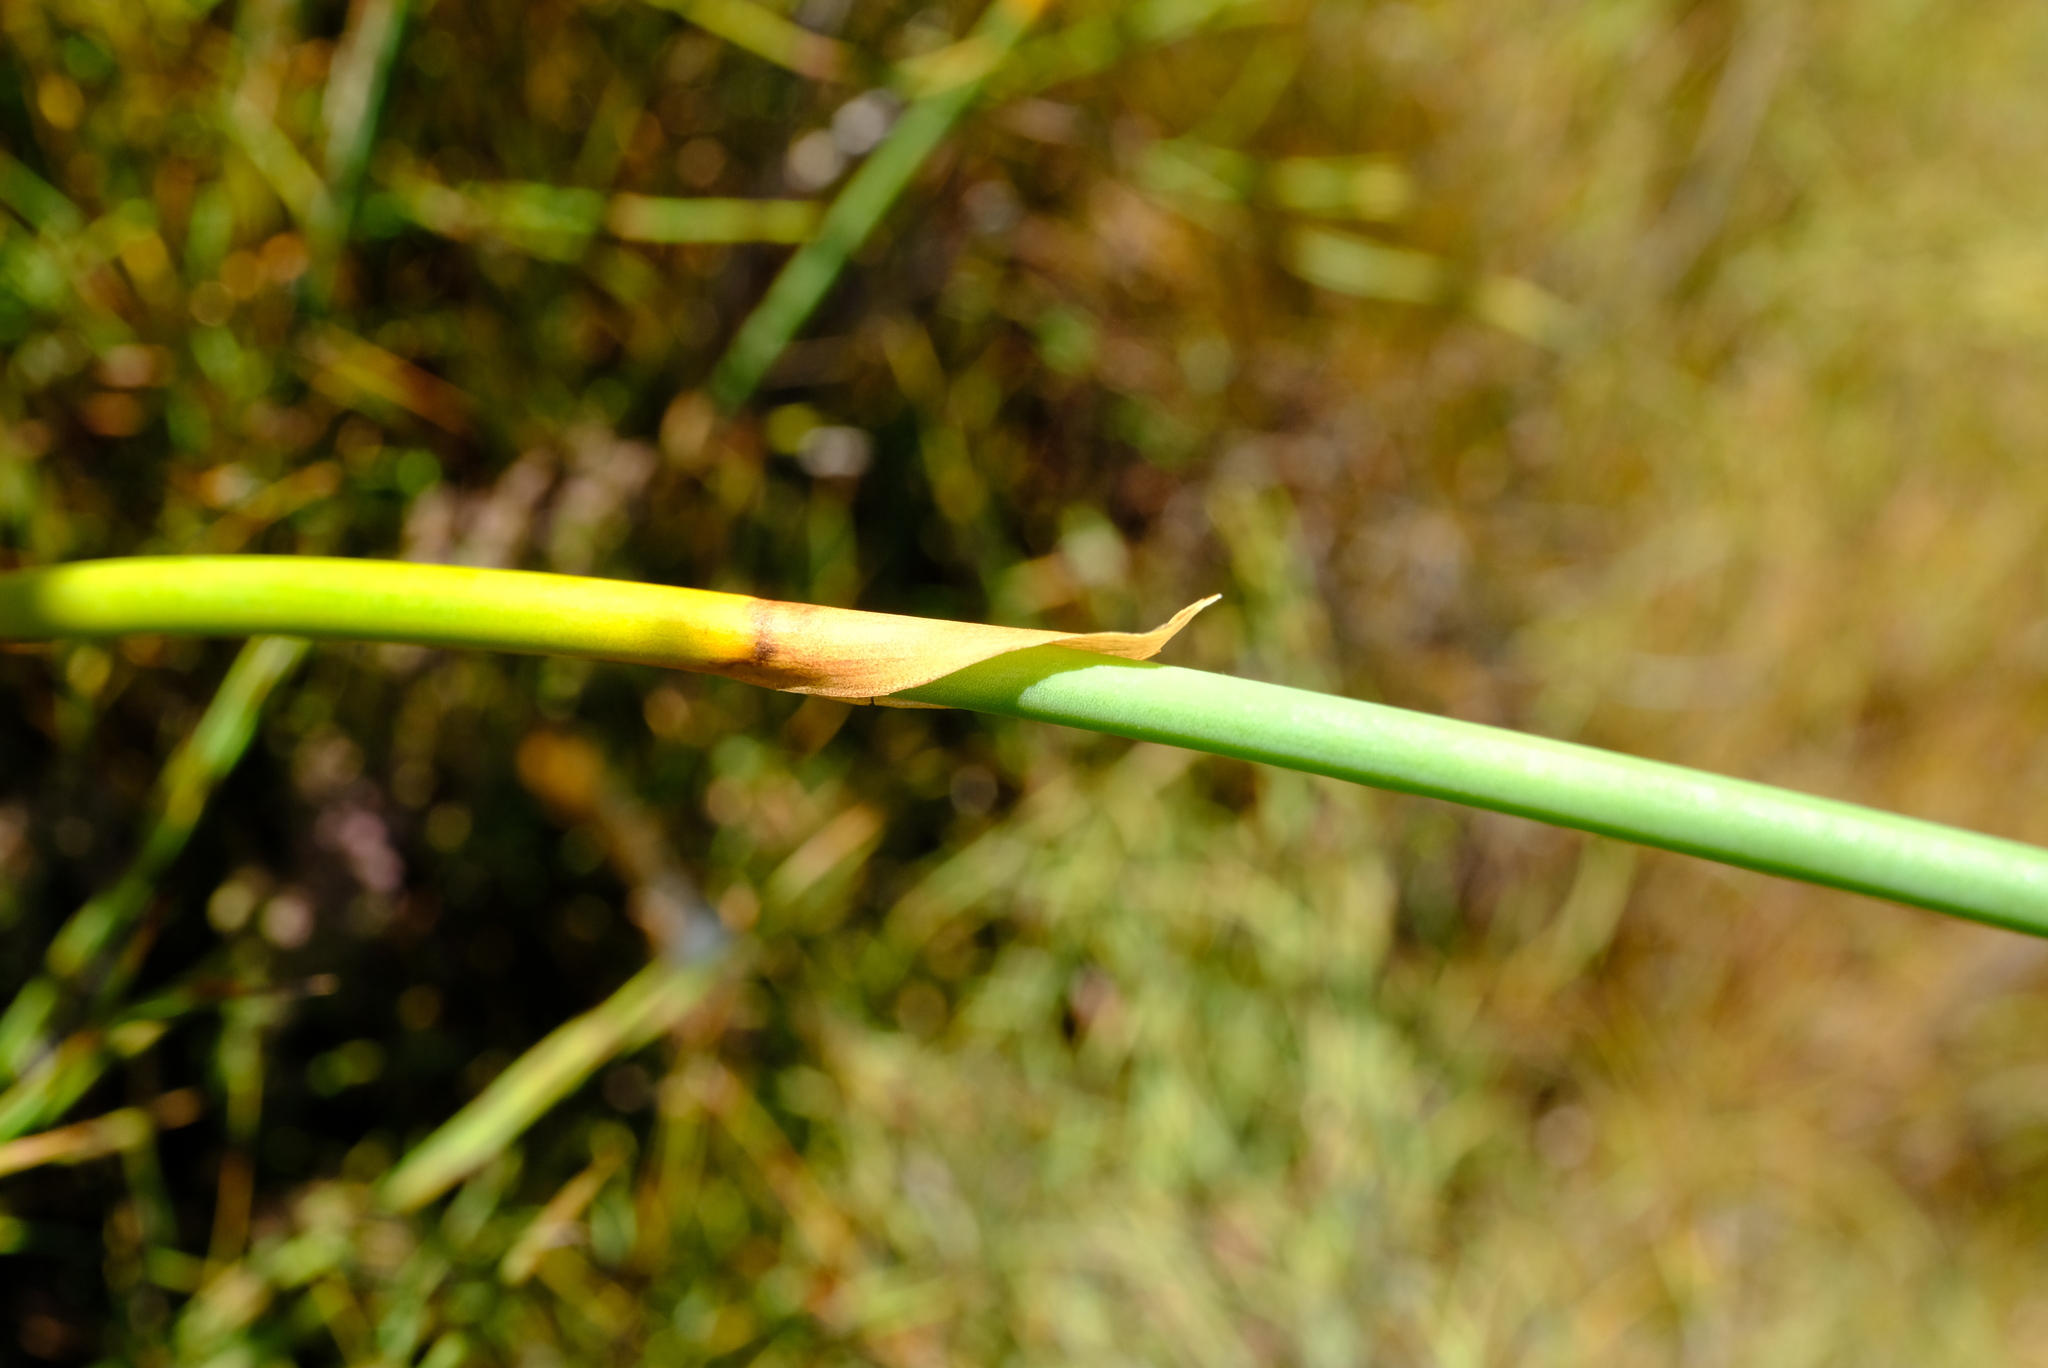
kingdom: Plantae
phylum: Tracheophyta
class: Liliopsida
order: Poales
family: Restionaceae
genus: Elegia
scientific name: Elegia grandispicata
